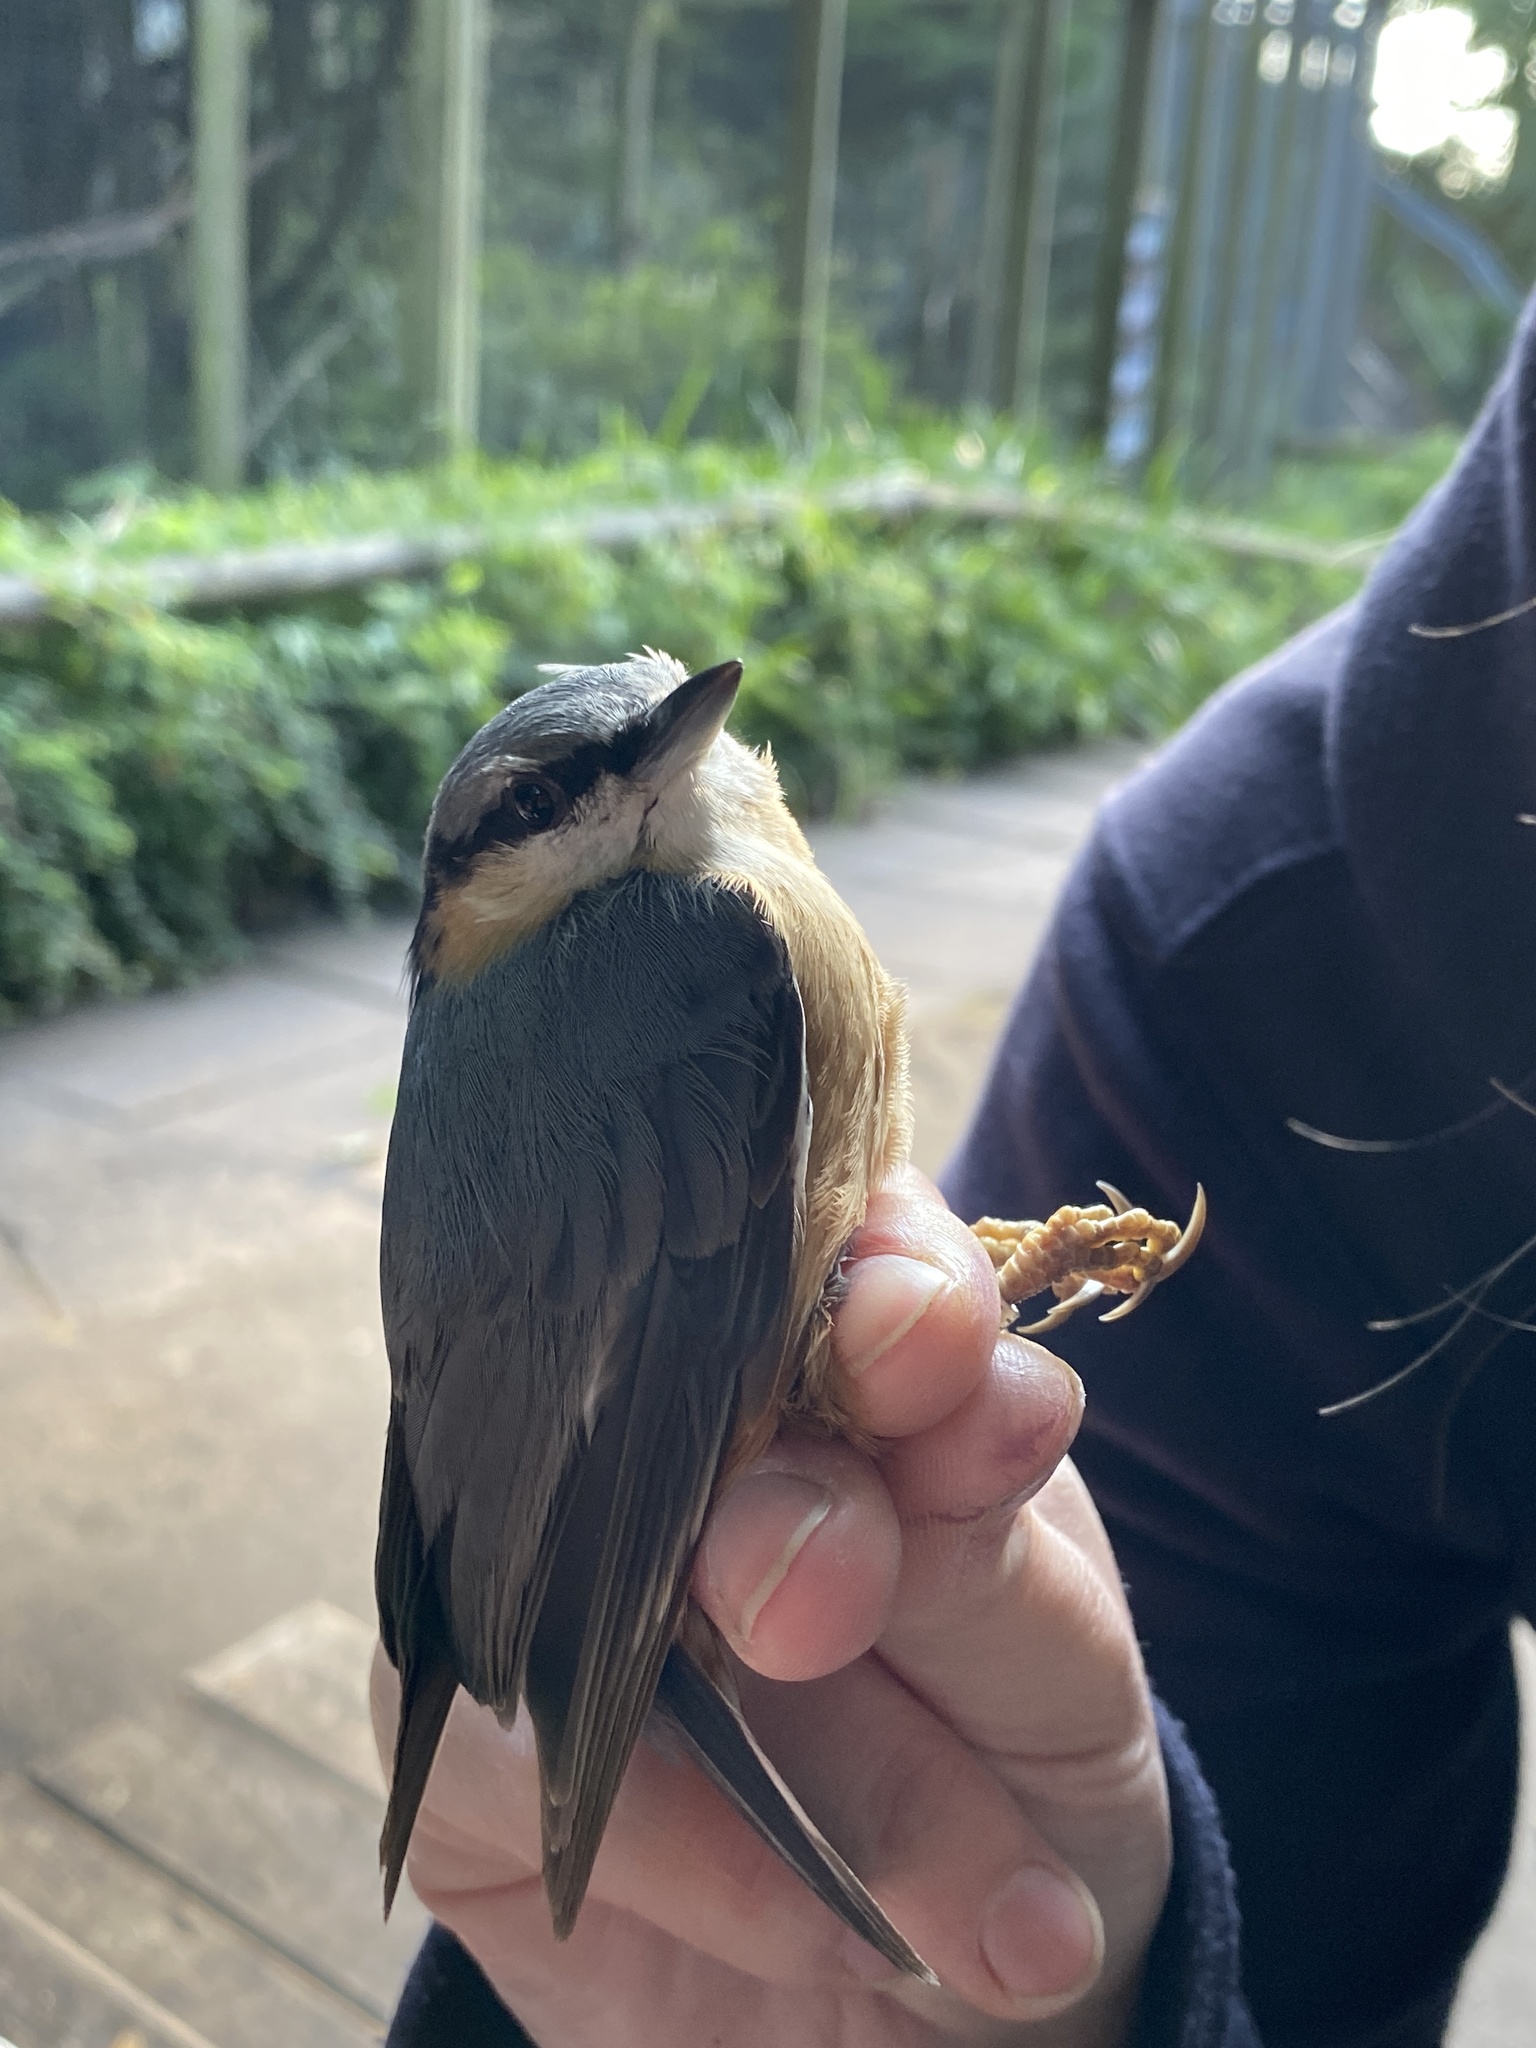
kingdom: Animalia
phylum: Chordata
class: Aves
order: Passeriformes
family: Sittidae
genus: Sitta
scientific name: Sitta europaea
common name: Eurasian nuthatch
